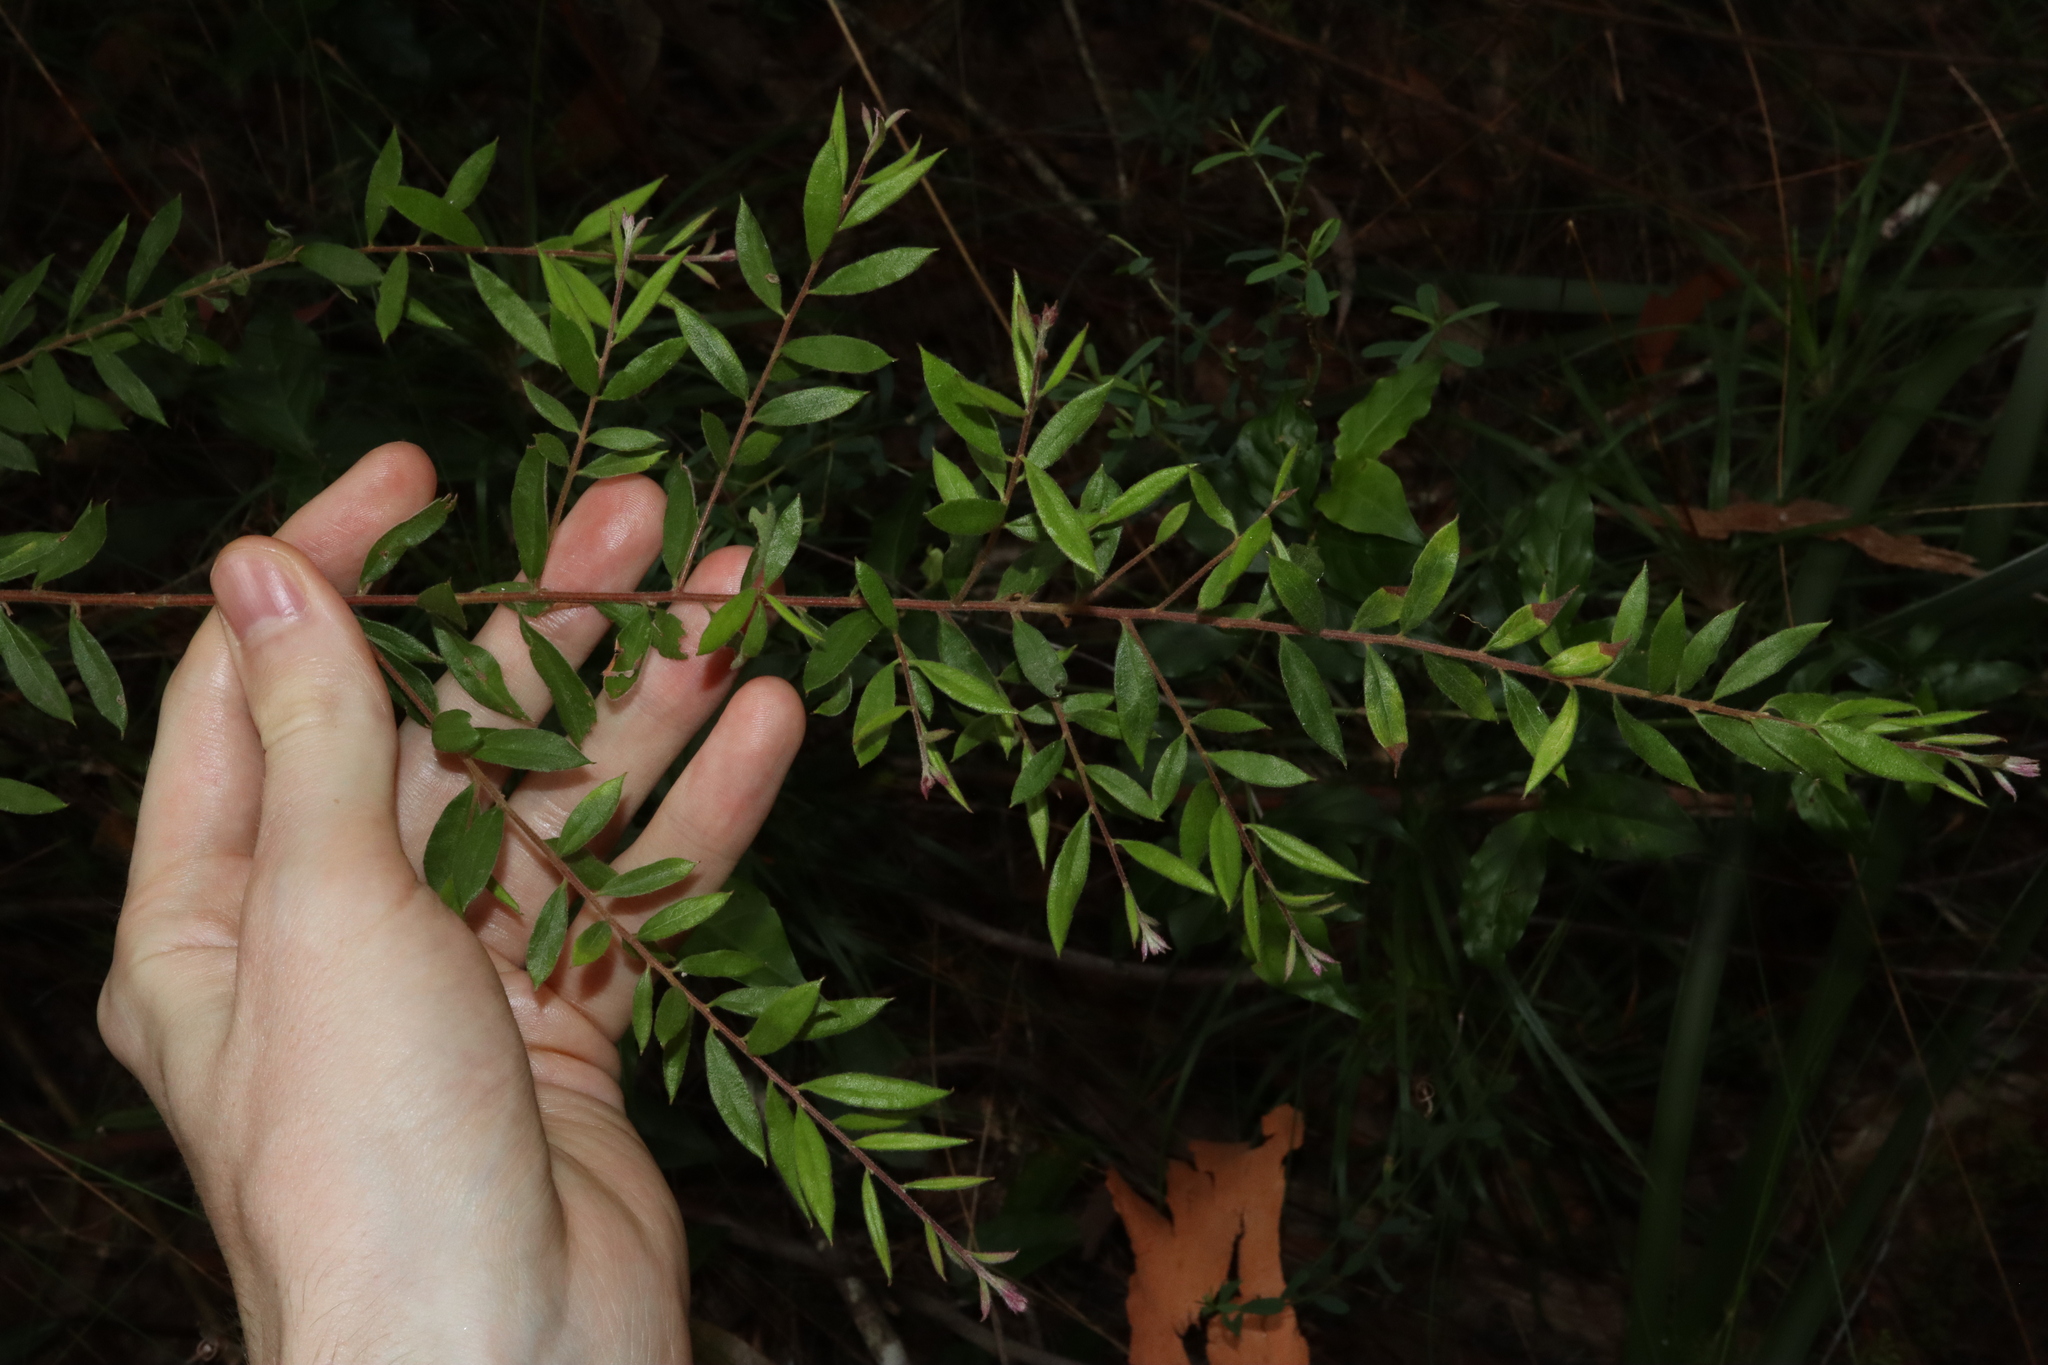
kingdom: Plantae
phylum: Tracheophyta
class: Magnoliopsida
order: Proteales
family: Proteaceae
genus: Grevillea
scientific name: Grevillea mucronulata
